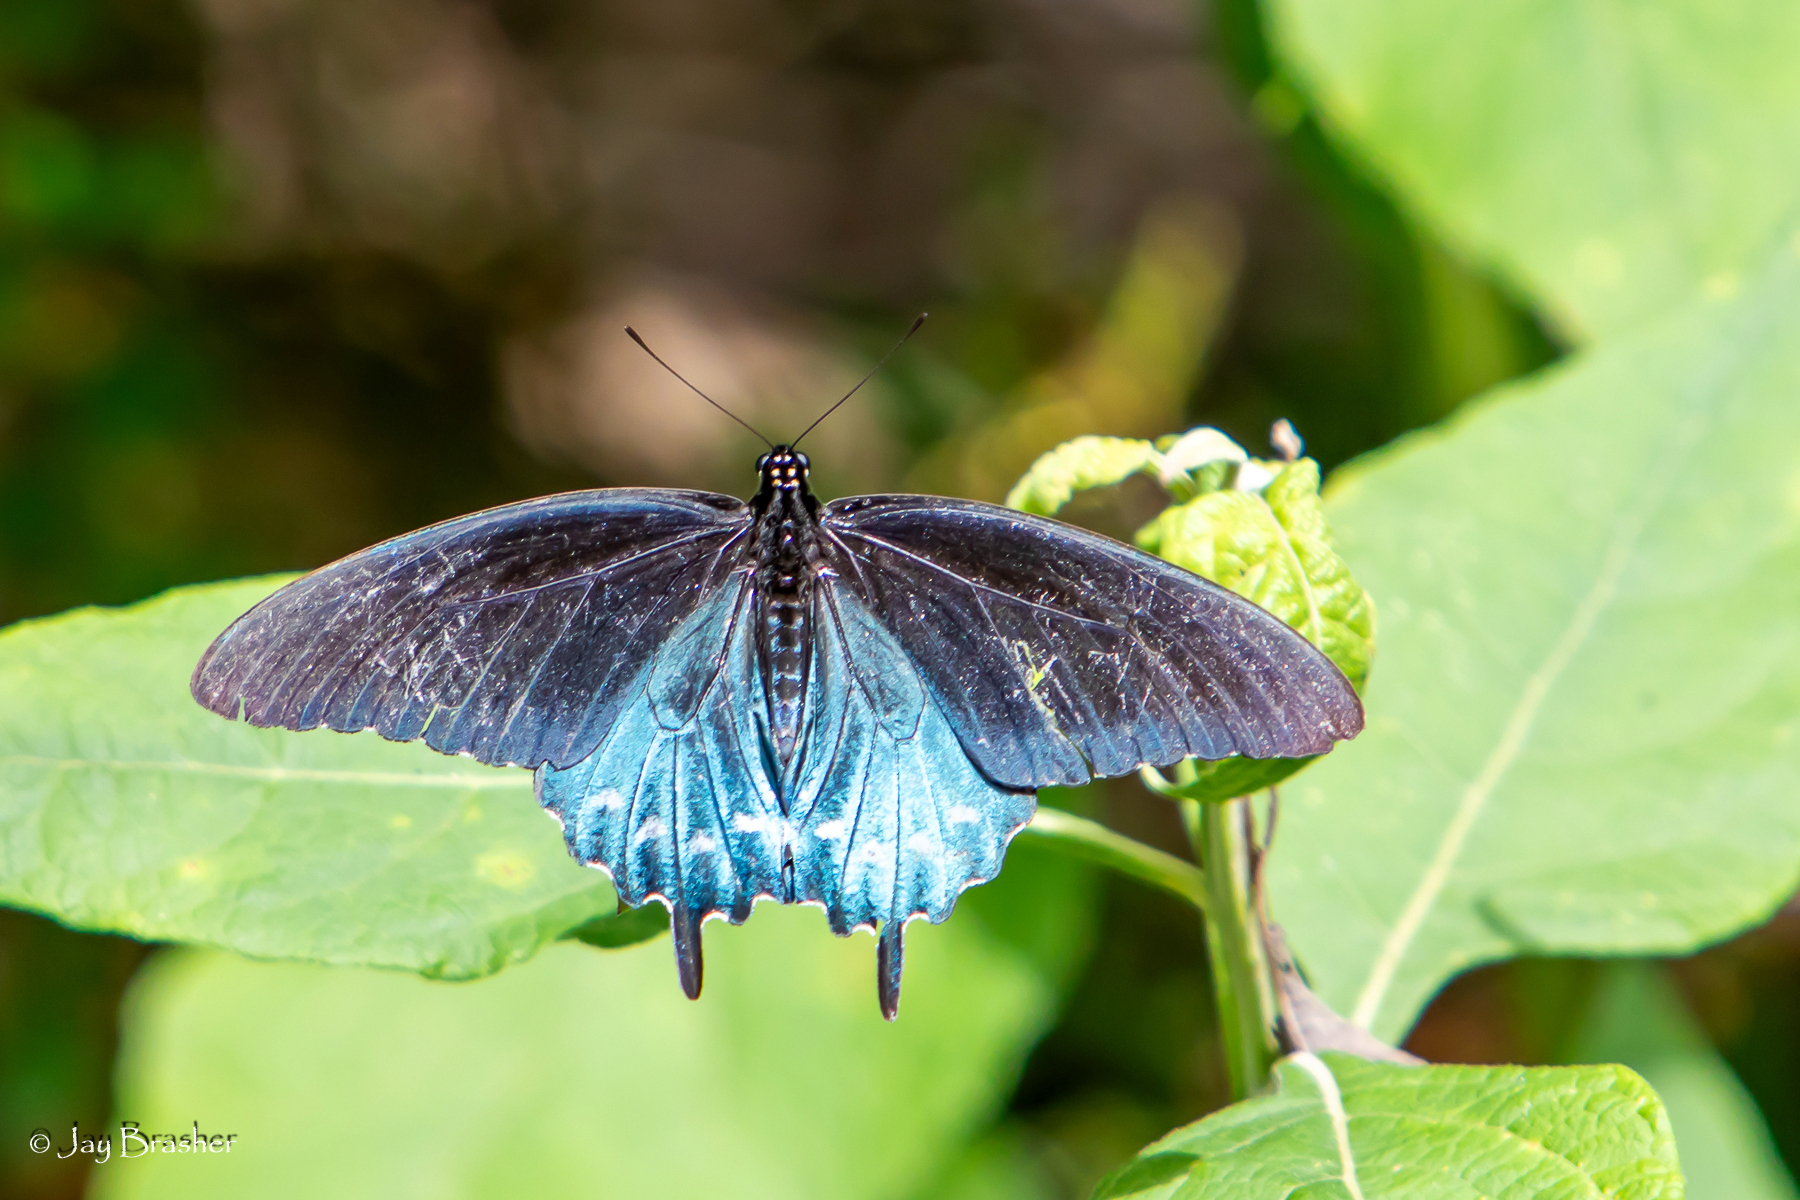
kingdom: Animalia
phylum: Arthropoda
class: Insecta
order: Lepidoptera
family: Papilionidae
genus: Battus
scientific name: Battus philenor
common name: Pipevine swallowtail
